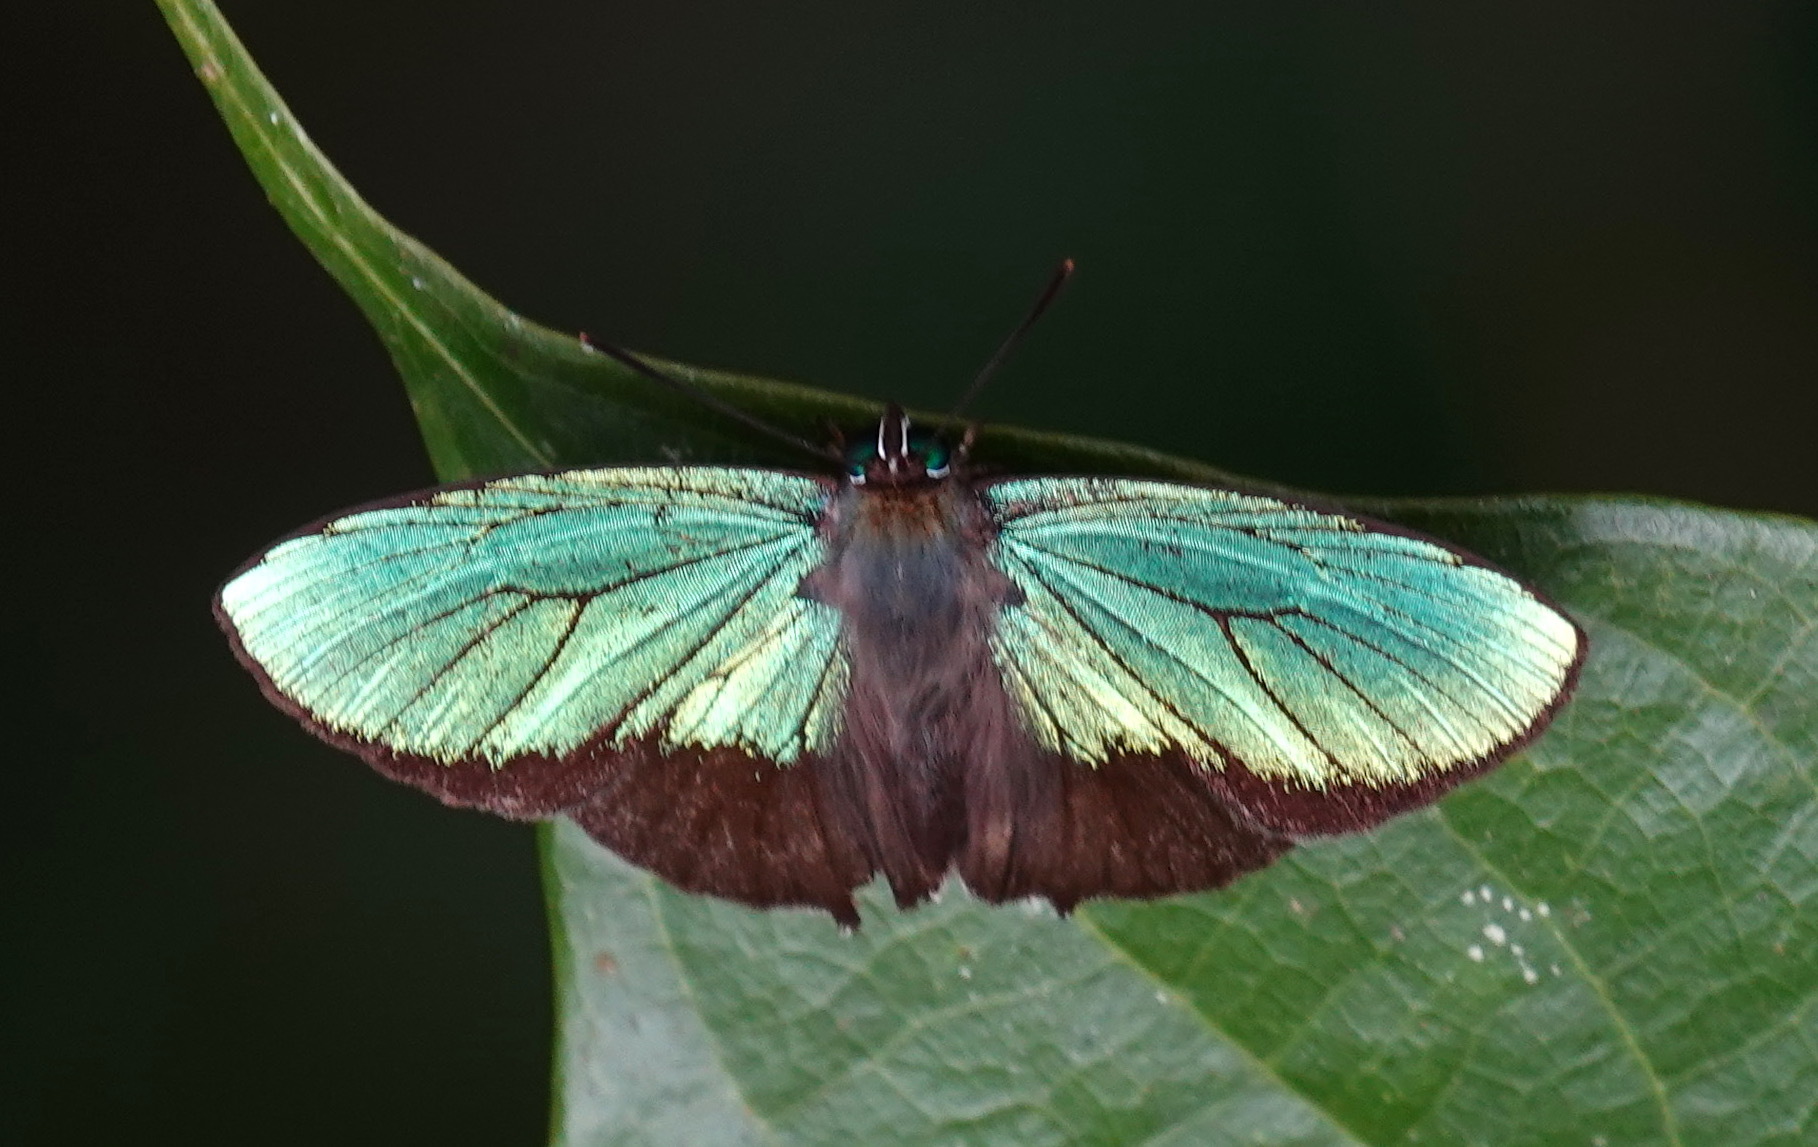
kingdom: Animalia
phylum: Arthropoda
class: Insecta
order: Lepidoptera
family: Lycaenidae
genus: Arhopala
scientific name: Arhopala aurea
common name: Long-celled oakblue
